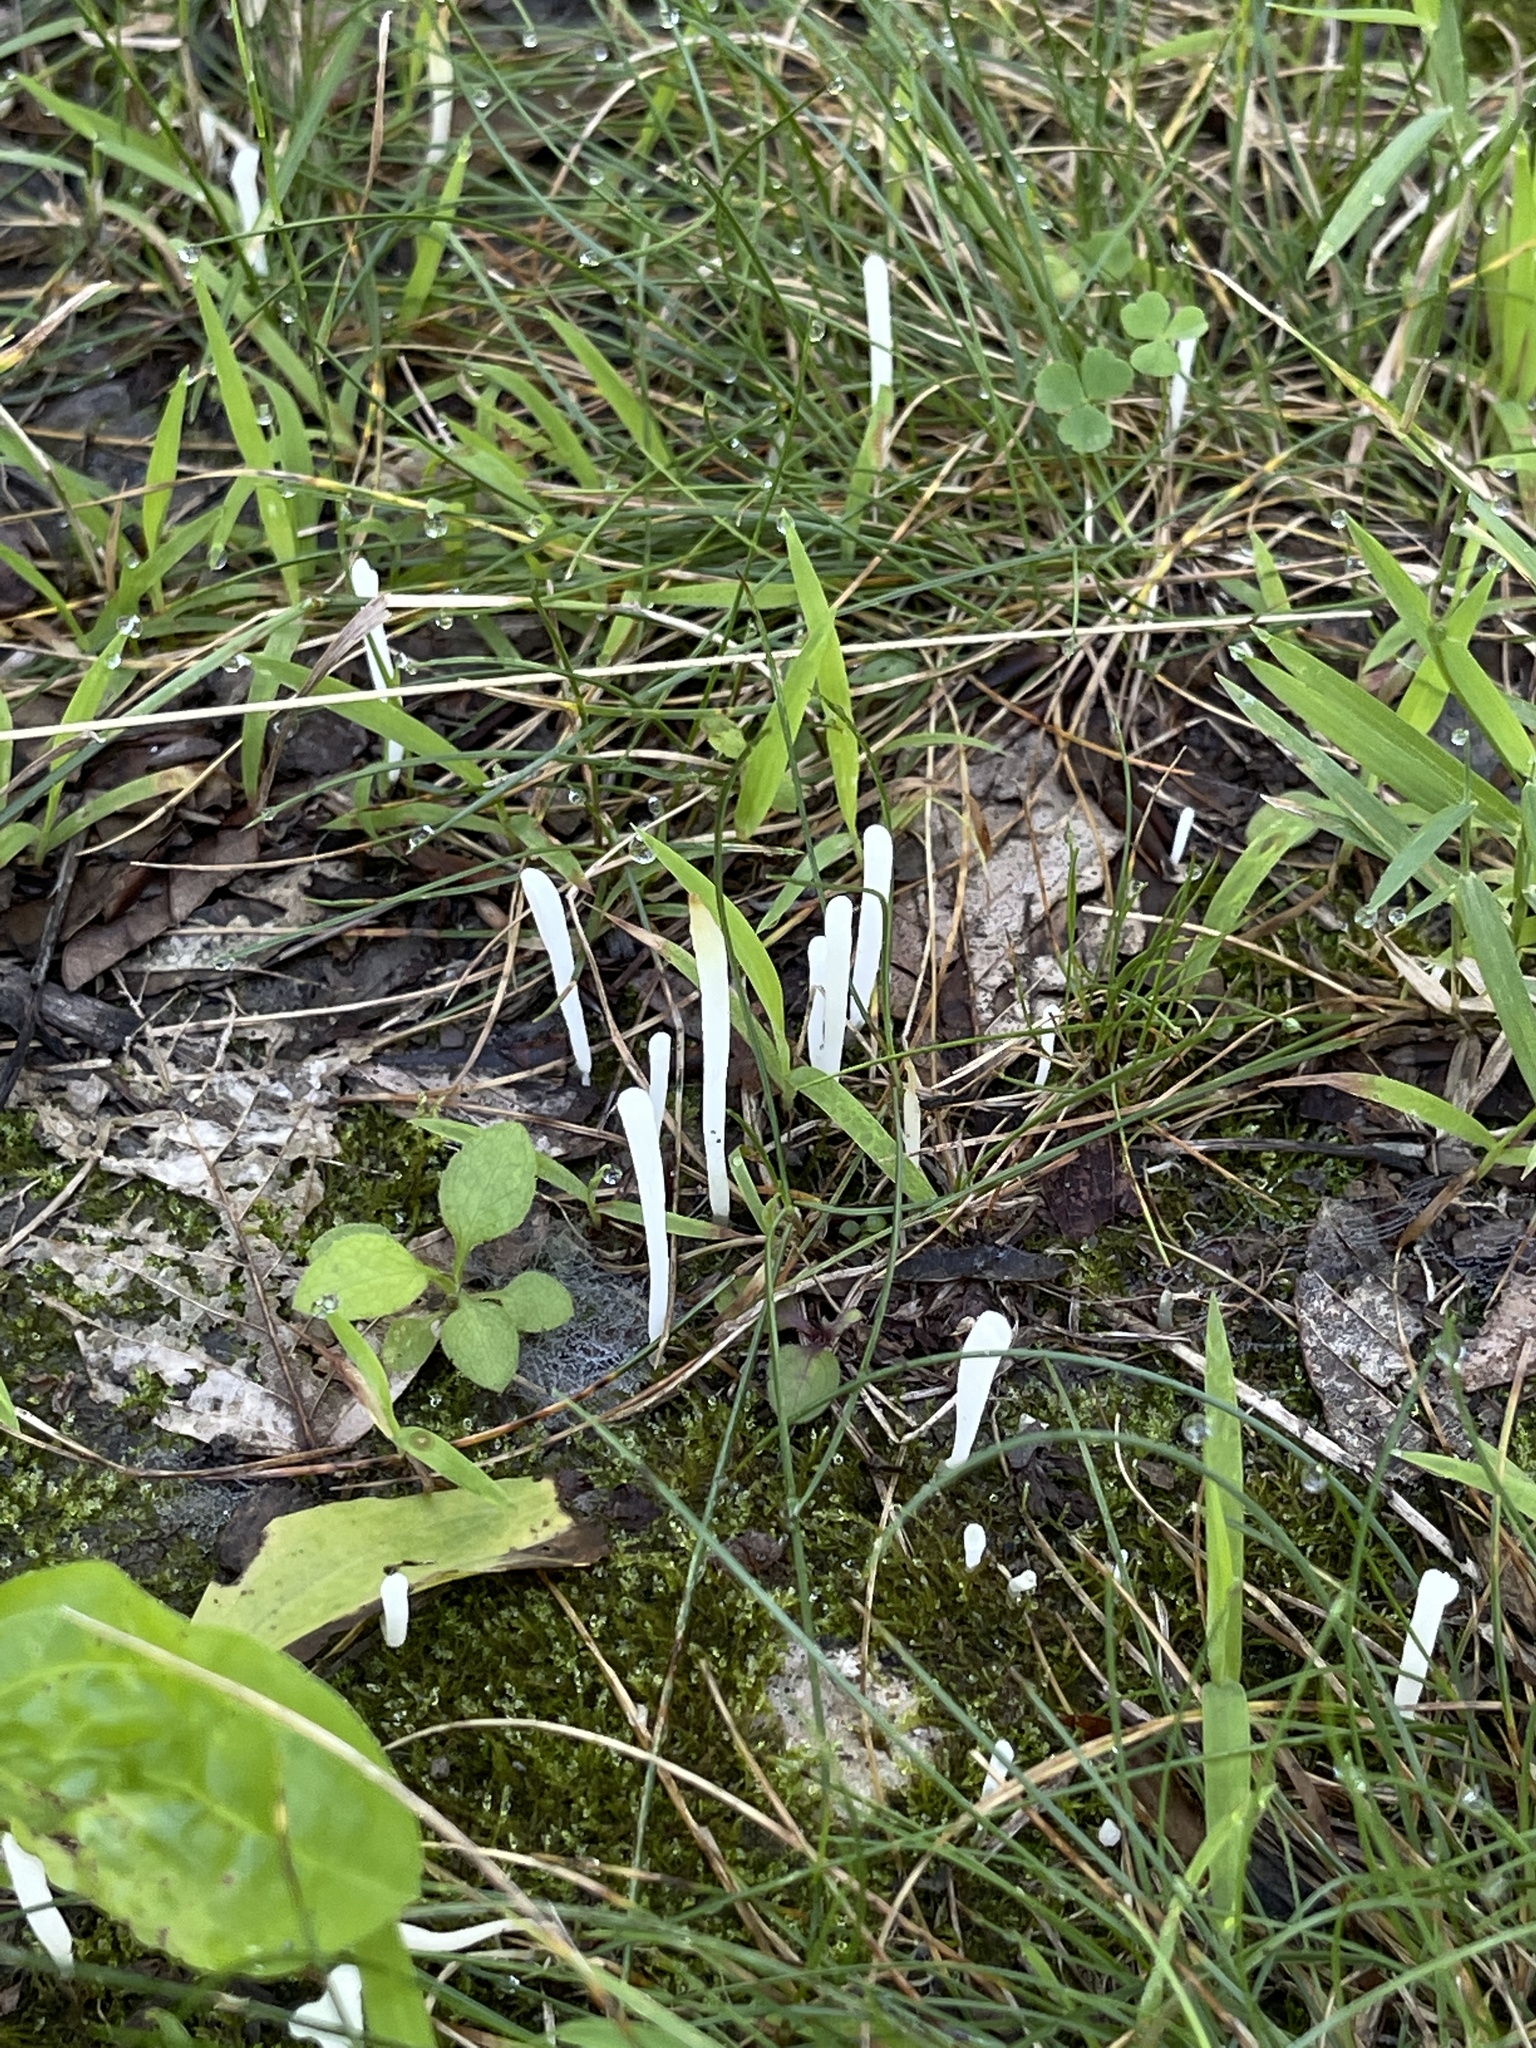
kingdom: Fungi
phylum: Basidiomycota
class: Agaricomycetes
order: Agaricales
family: Clavariaceae
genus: Clavaria
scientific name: Clavaria fragilis
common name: White spindles
